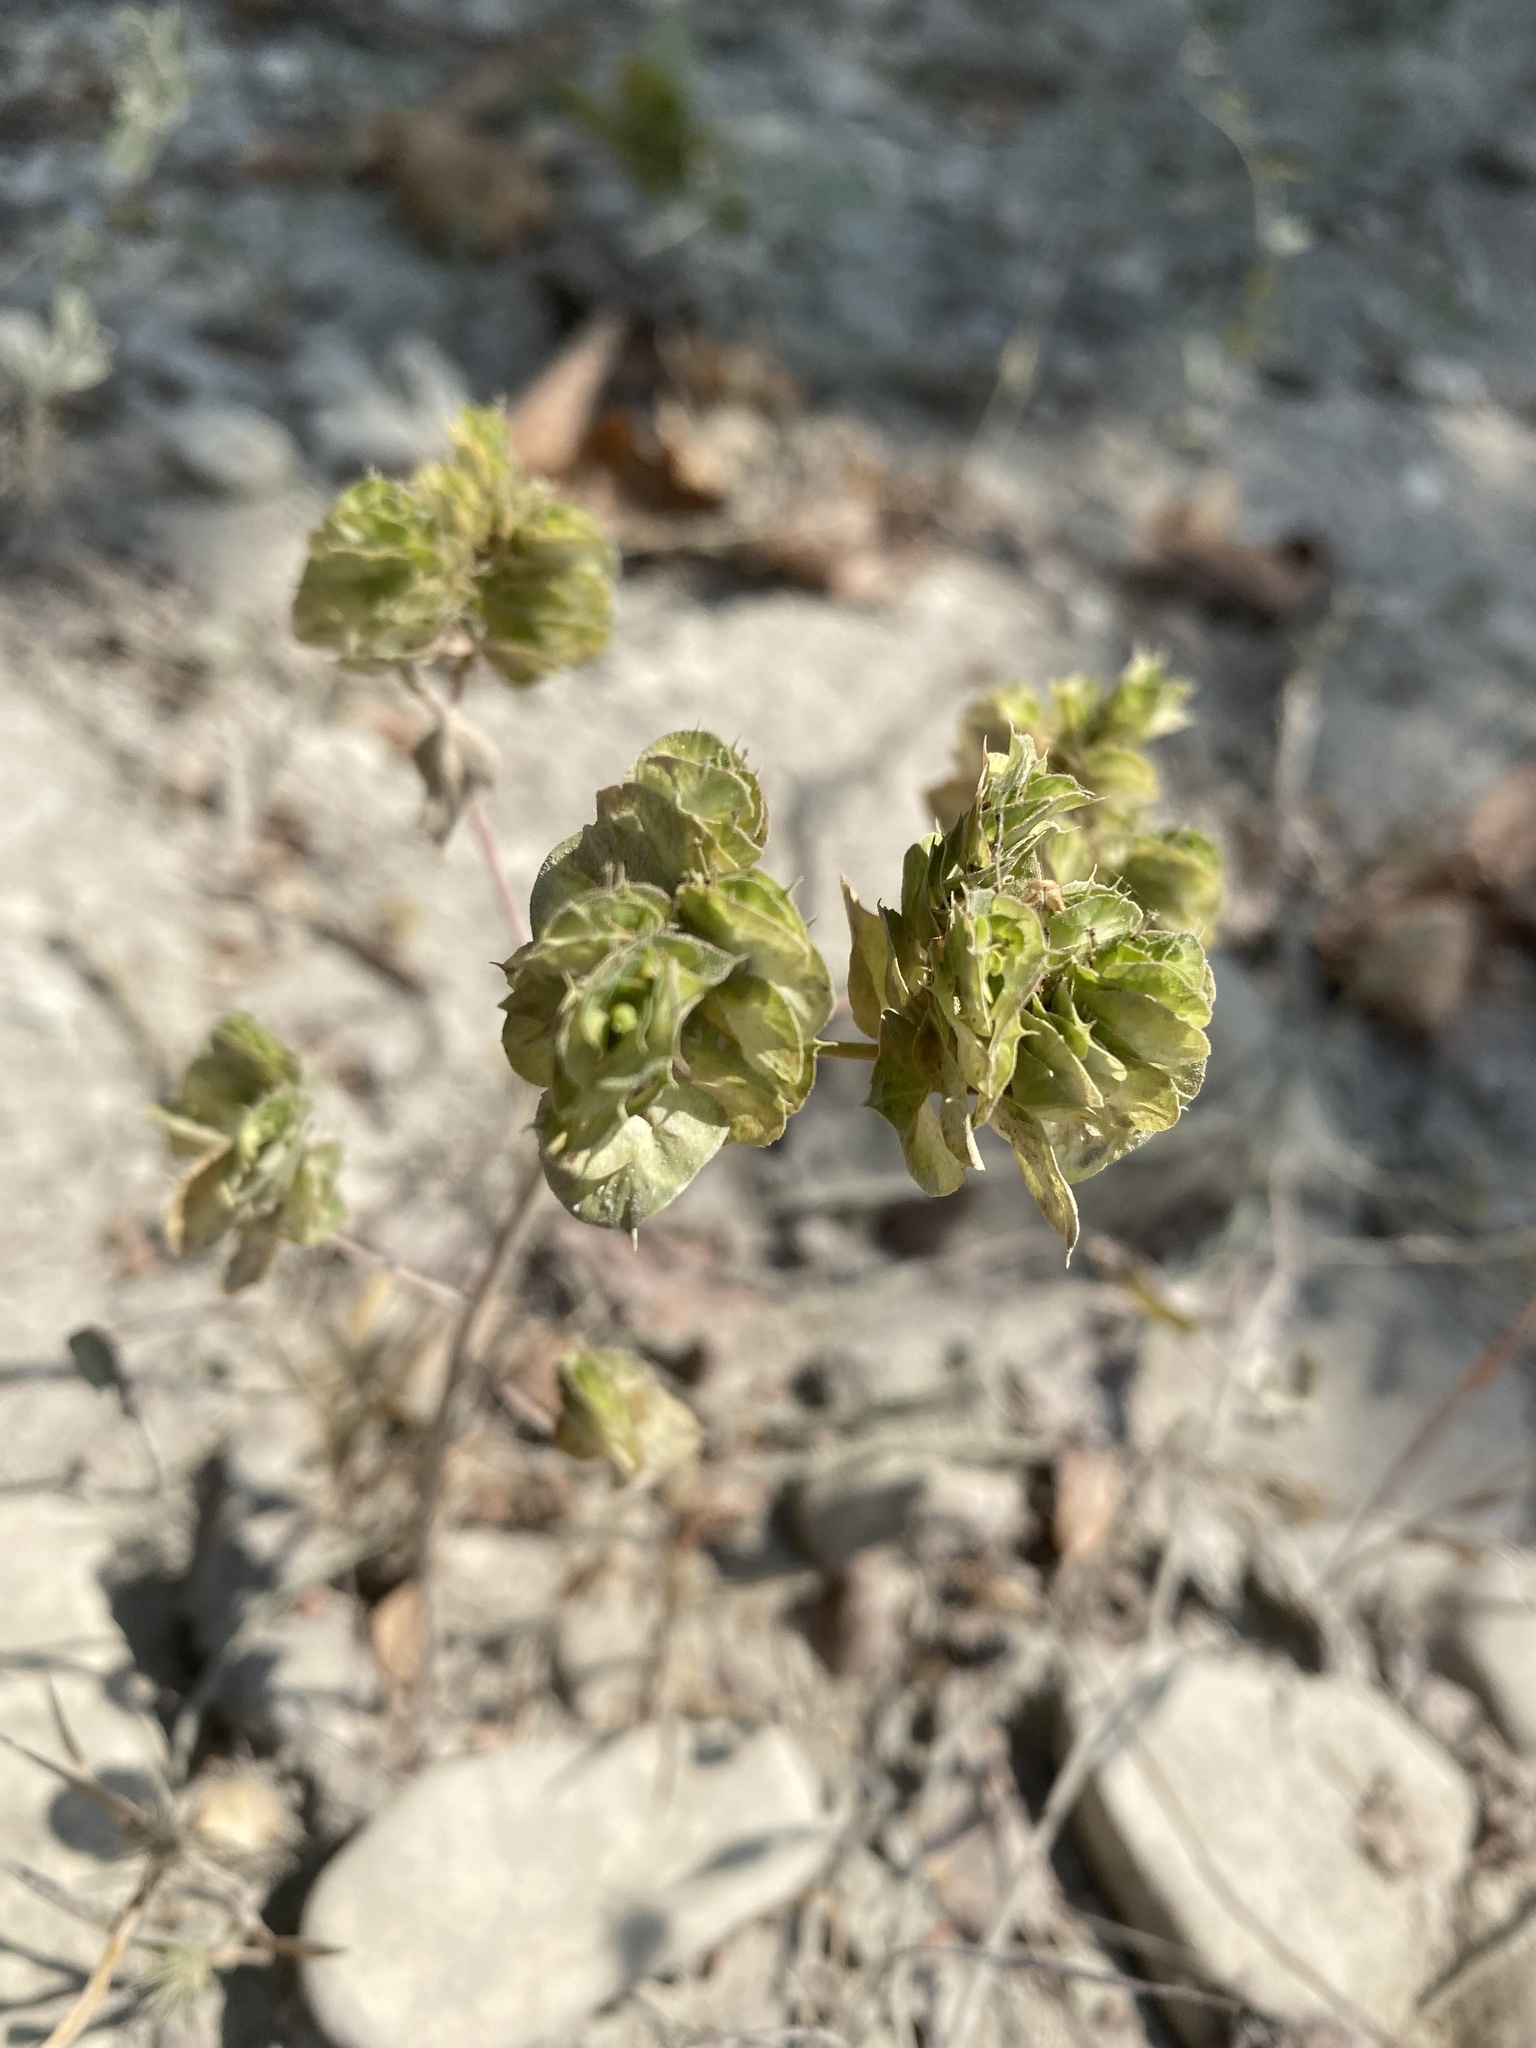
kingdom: Plantae
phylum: Tracheophyta
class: Magnoliopsida
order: Malpighiales
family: Euphorbiaceae
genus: Euphorbia
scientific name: Euphorbia falcata
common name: Sickle spurge
